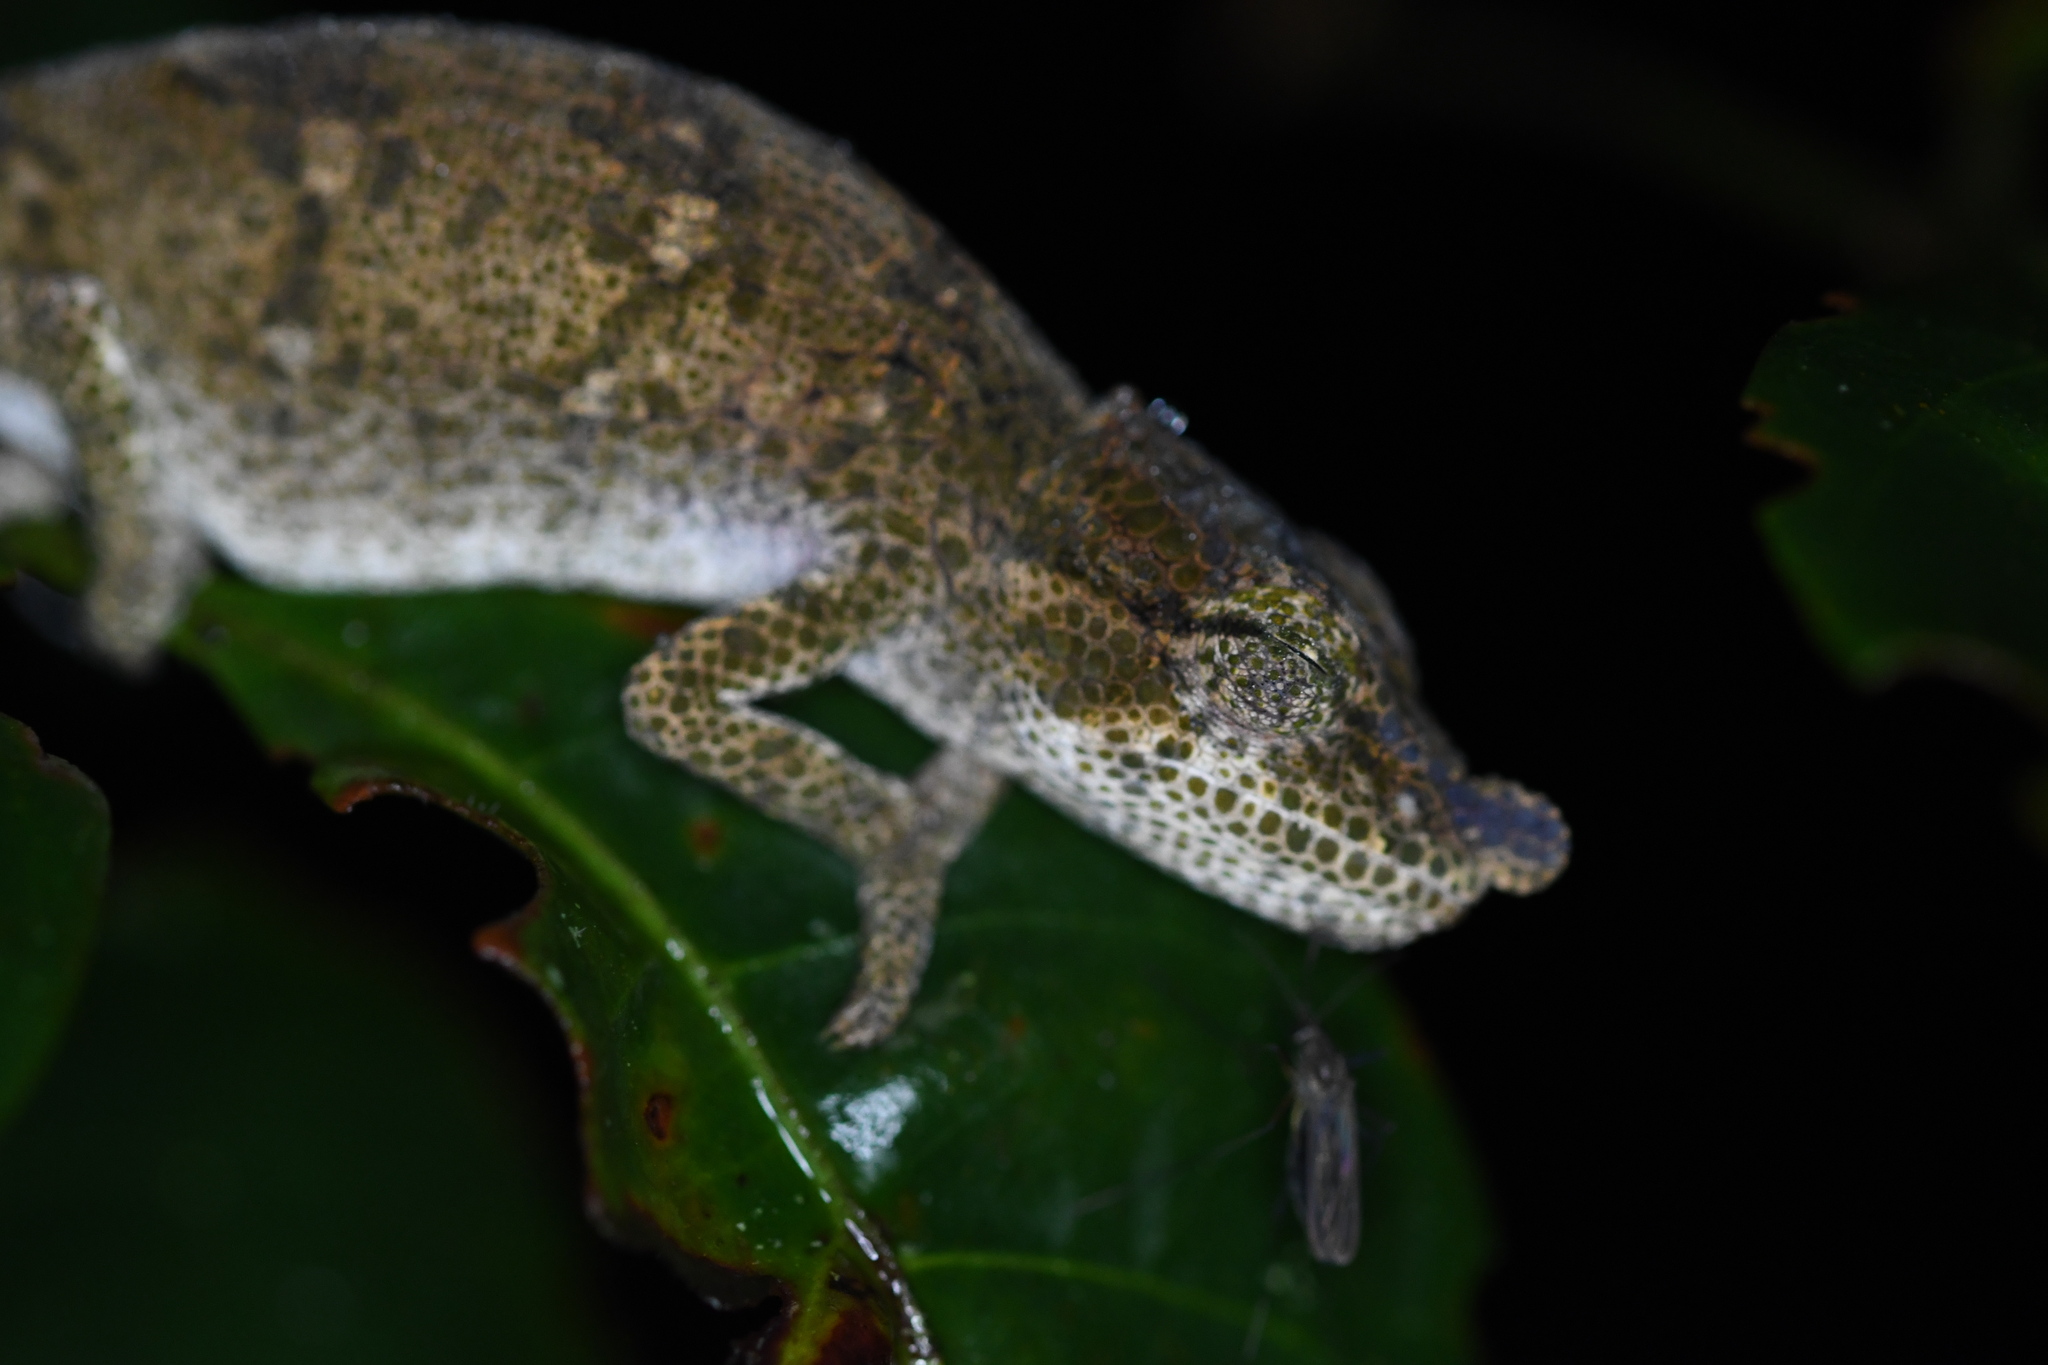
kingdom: Animalia
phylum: Chordata
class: Squamata
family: Chamaeleonidae
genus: Calumma
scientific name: Calumma fallax
